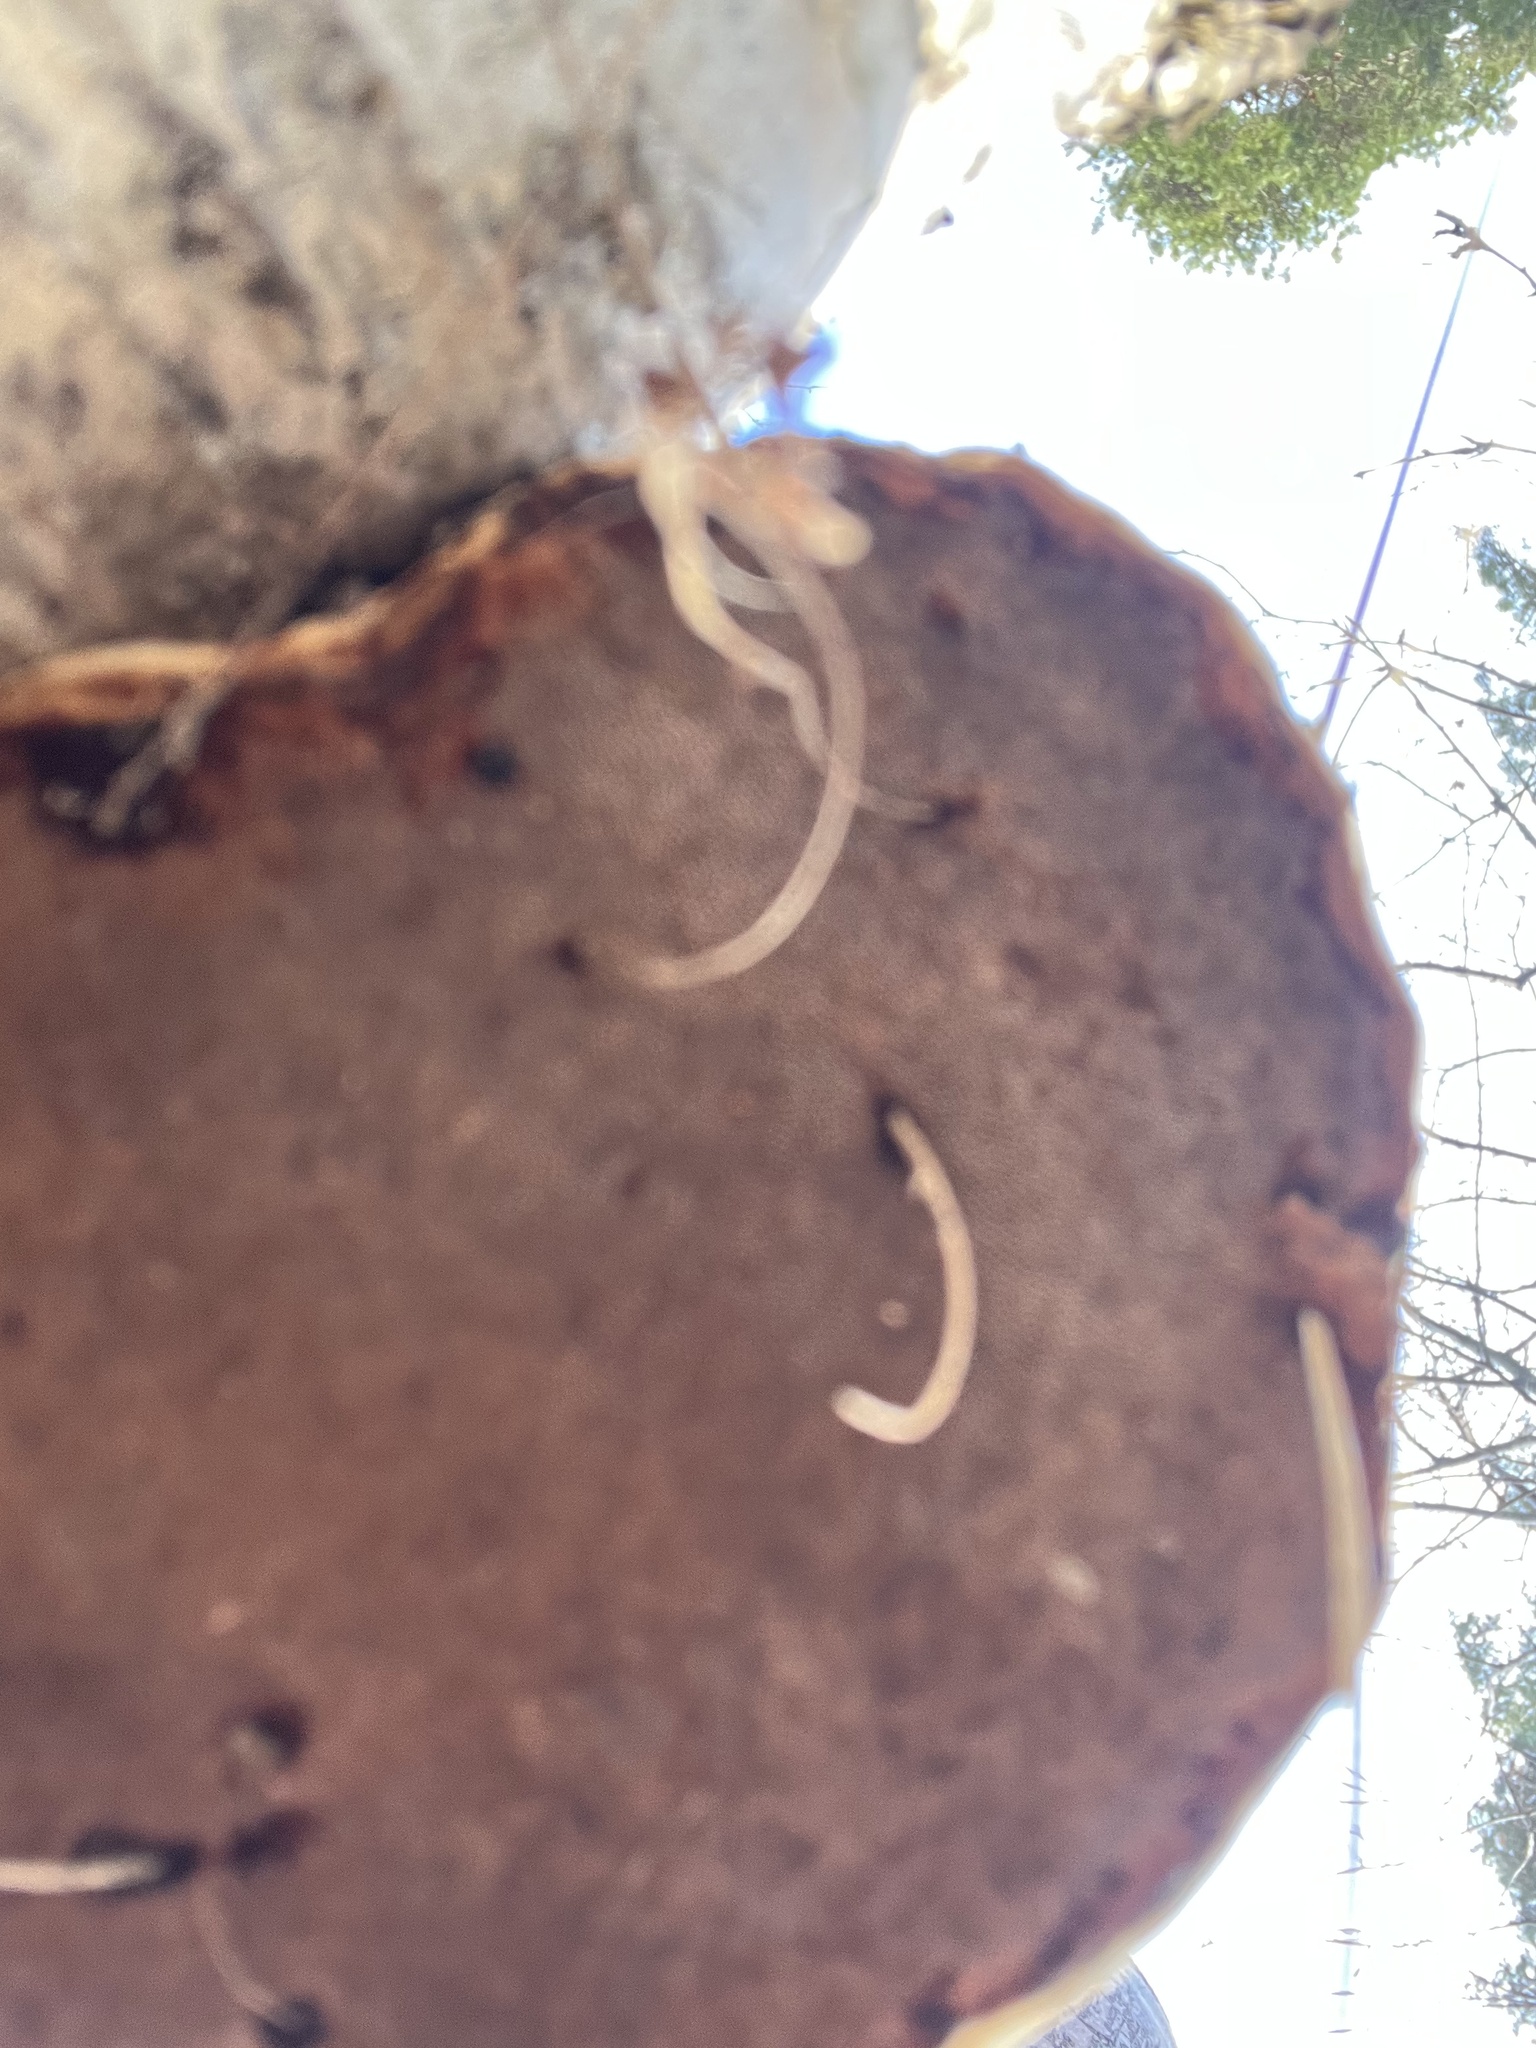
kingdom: Fungi
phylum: Basidiomycota
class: Agaricomycetes
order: Polyporales
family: Polyporaceae
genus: Fomes
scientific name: Fomes fomentarius
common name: Hoof fungus
